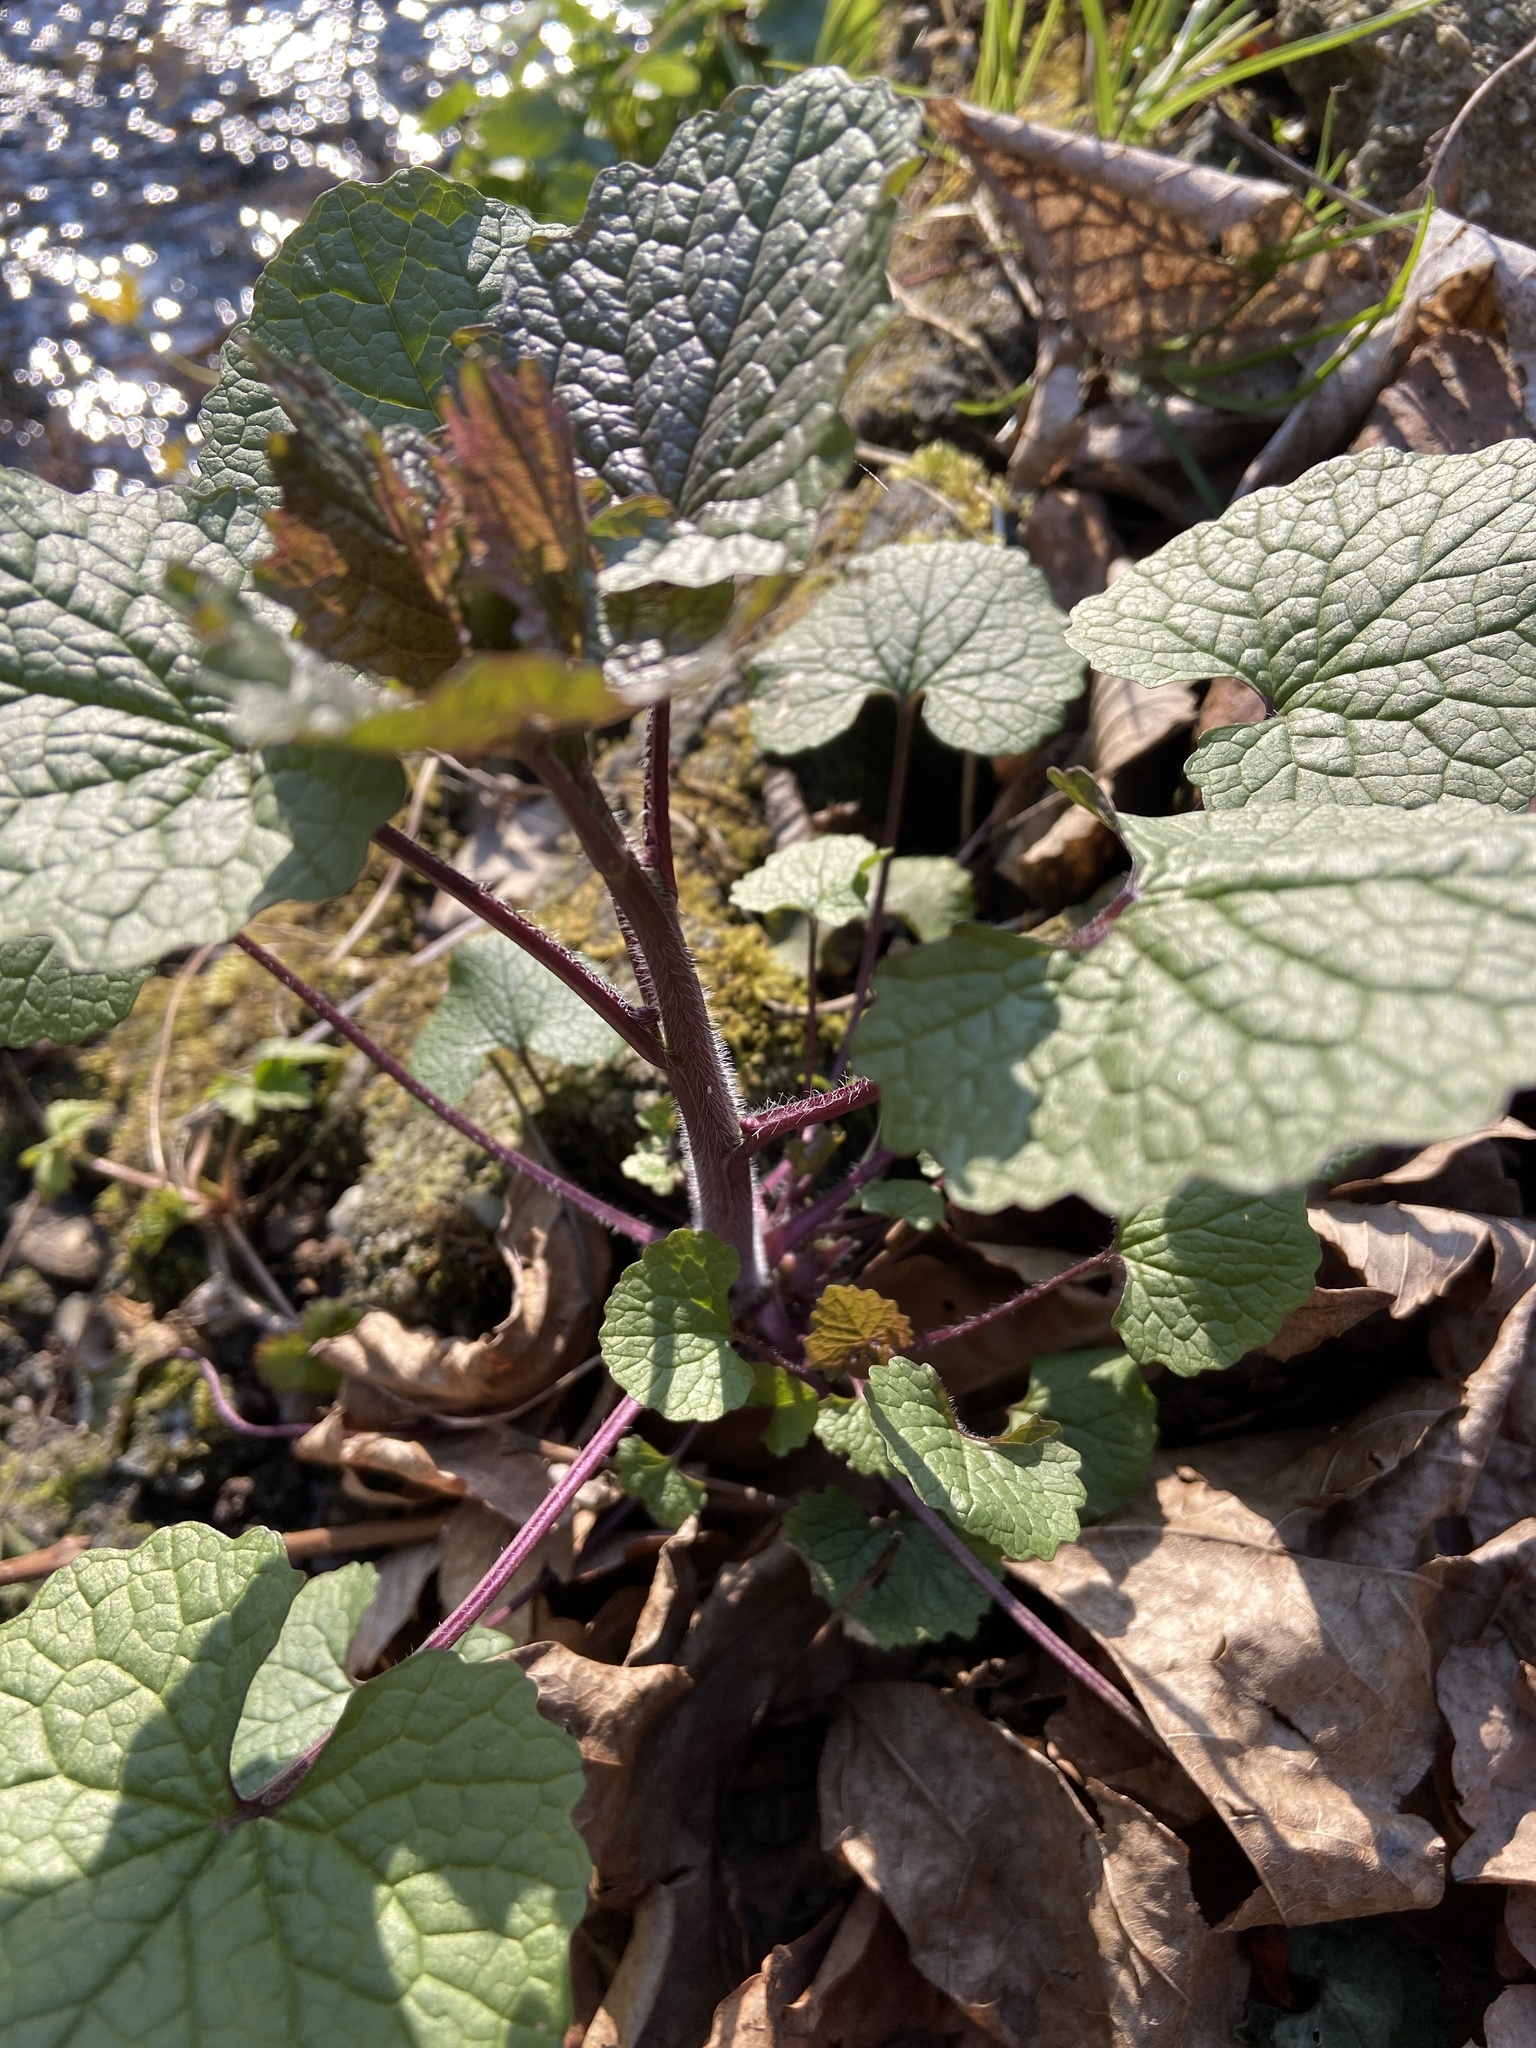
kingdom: Plantae
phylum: Tracheophyta
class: Magnoliopsida
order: Brassicales
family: Brassicaceae
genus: Alliaria
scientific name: Alliaria petiolata
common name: Garlic mustard
